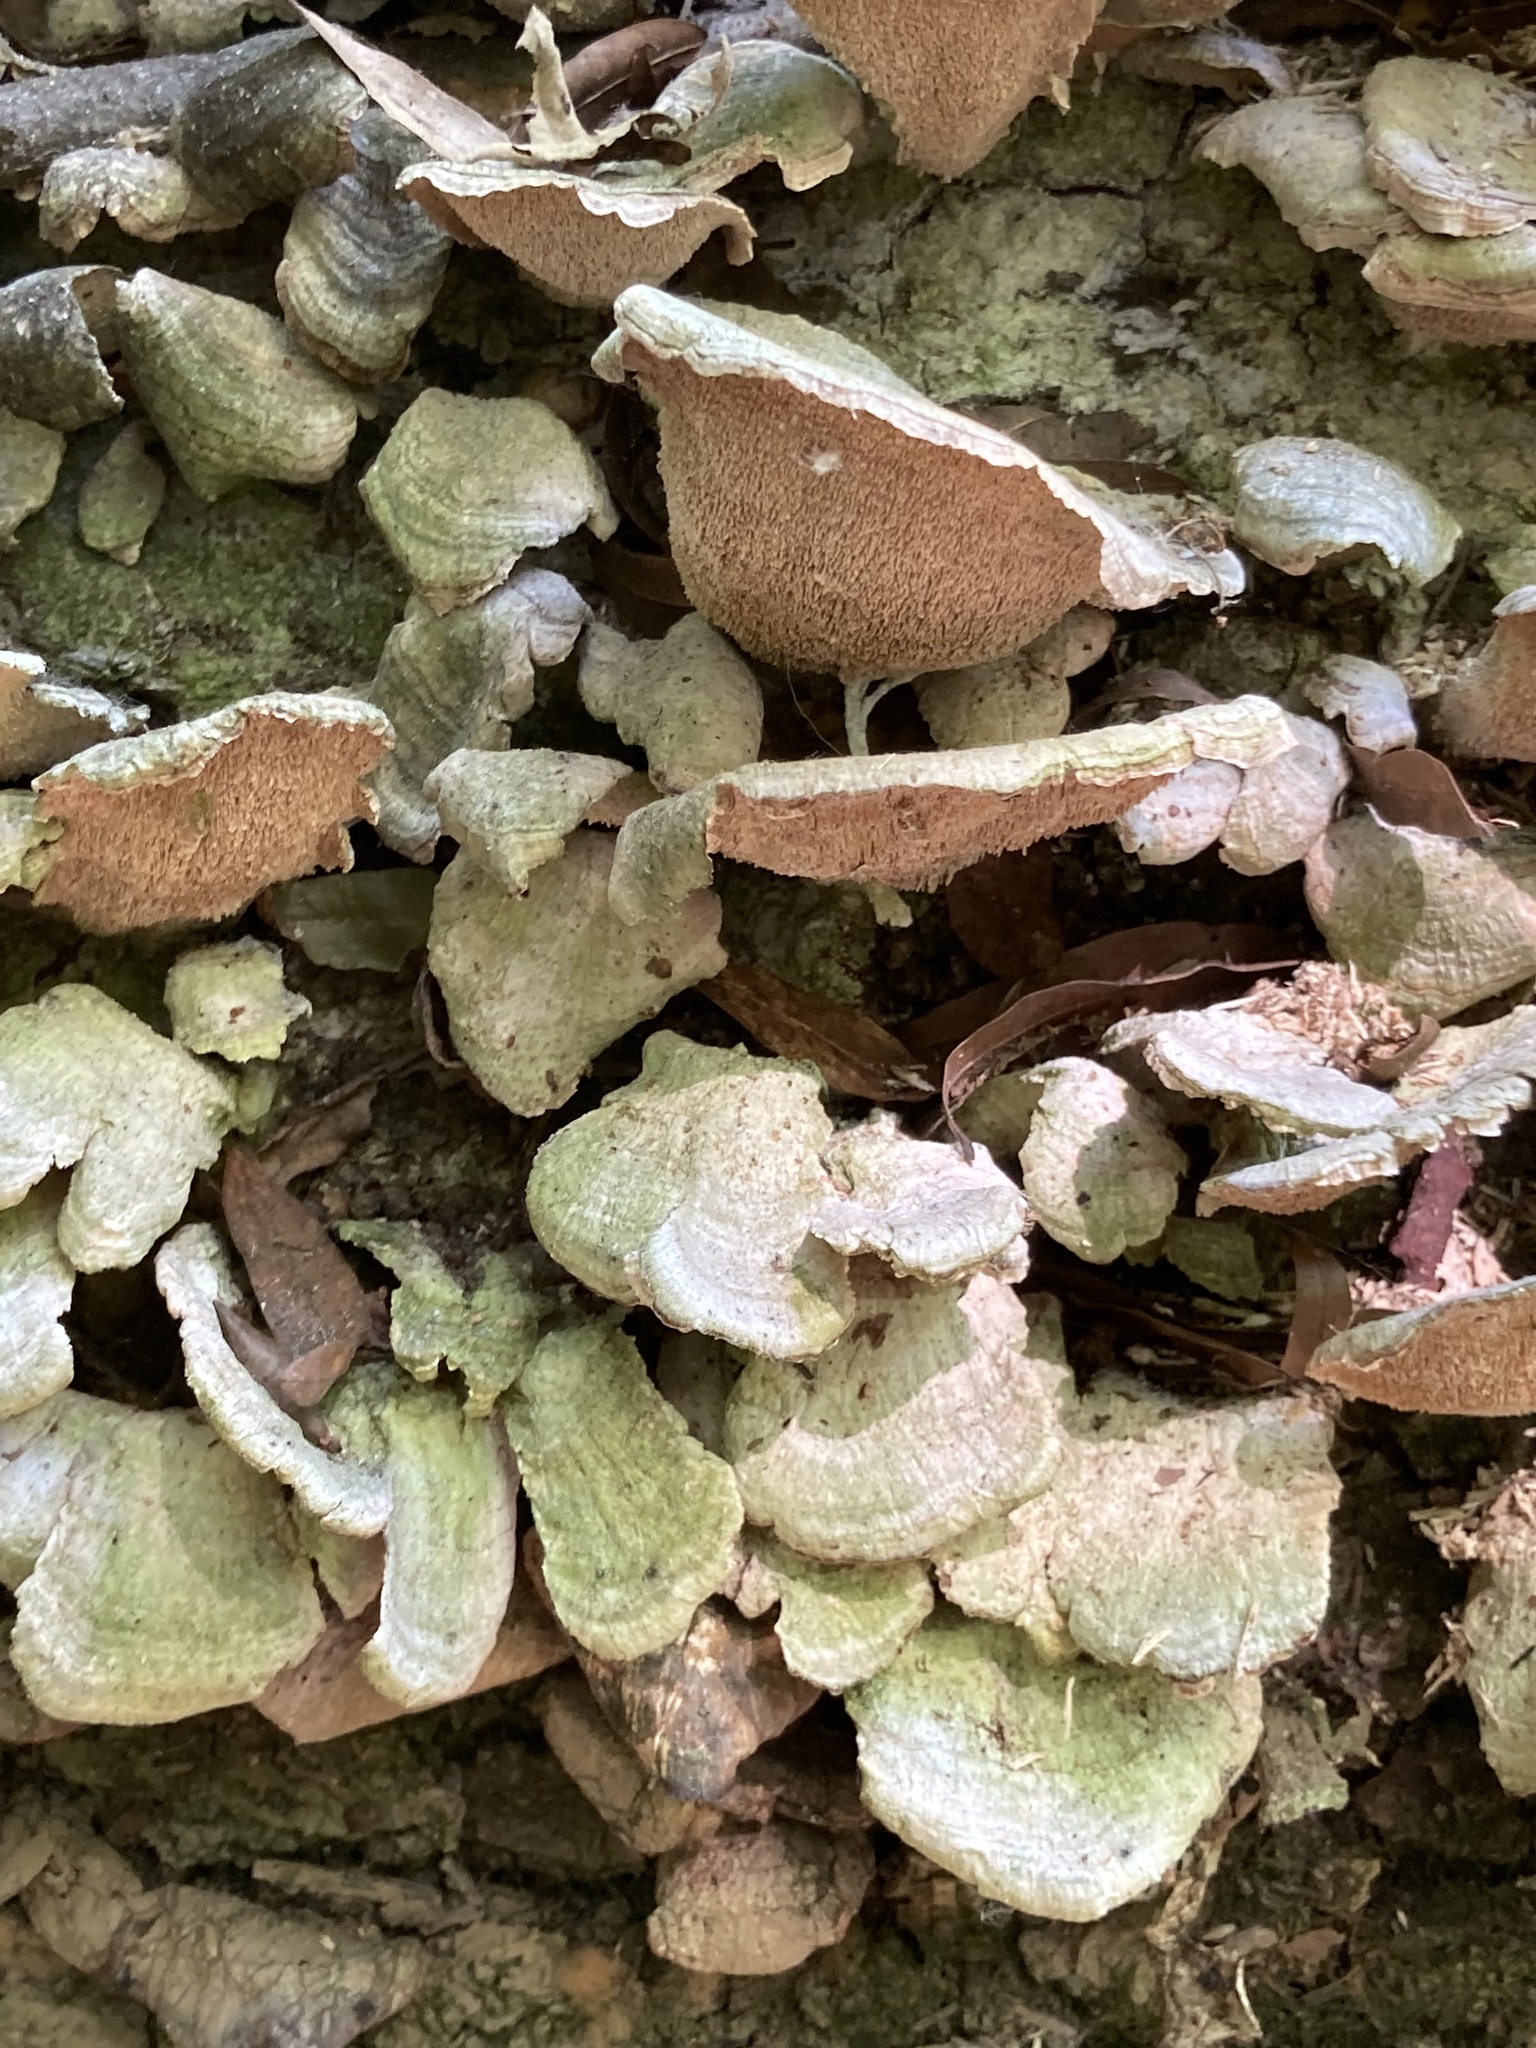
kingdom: Fungi
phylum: Basidiomycota
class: Agaricomycetes
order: Hymenochaetales
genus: Trichaptum
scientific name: Trichaptum biforme
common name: Violet-toothed polypore
